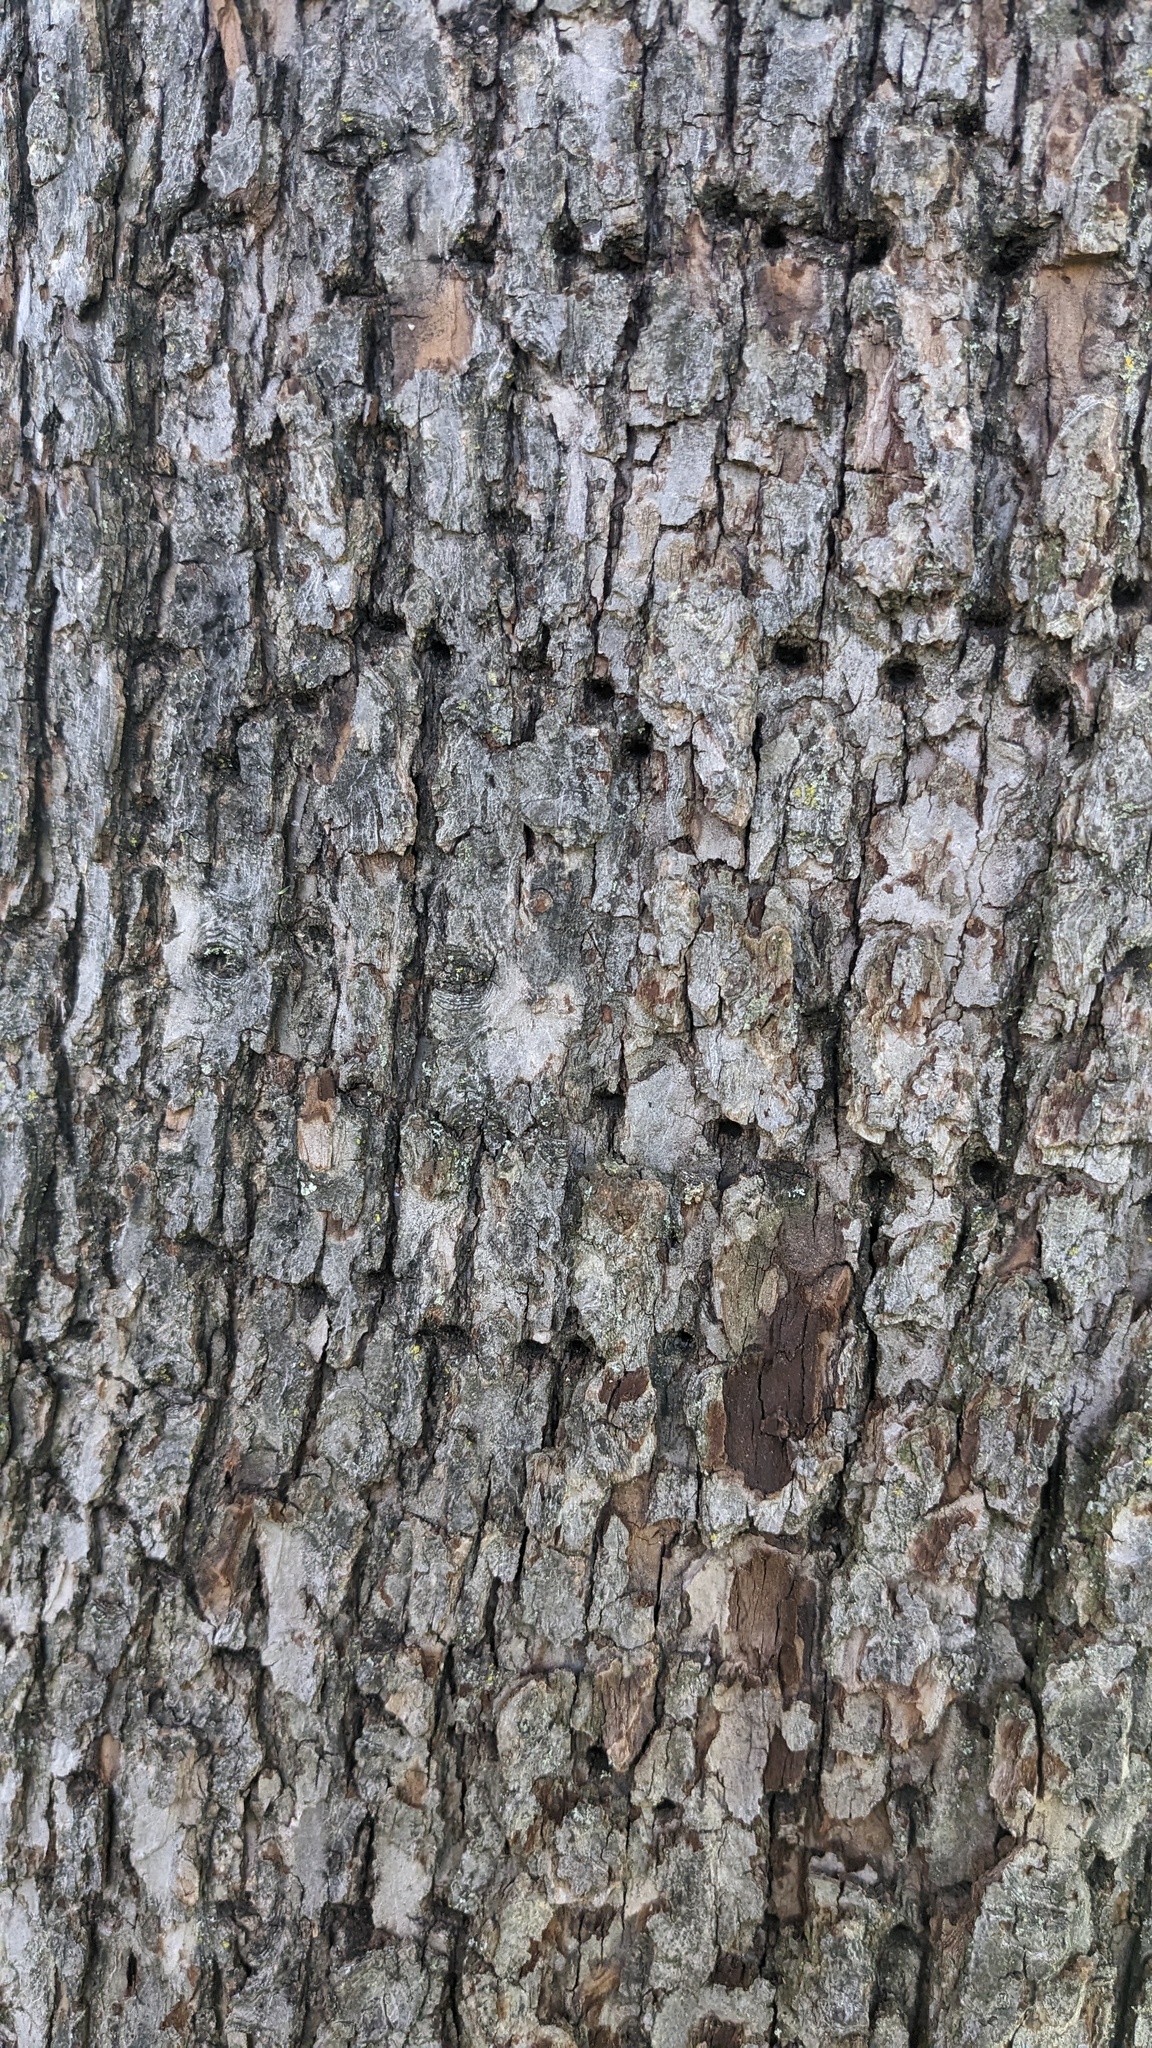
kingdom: Animalia
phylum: Chordata
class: Aves
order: Piciformes
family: Picidae
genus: Sphyrapicus
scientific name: Sphyrapicus varius
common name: Yellow-bellied sapsucker
